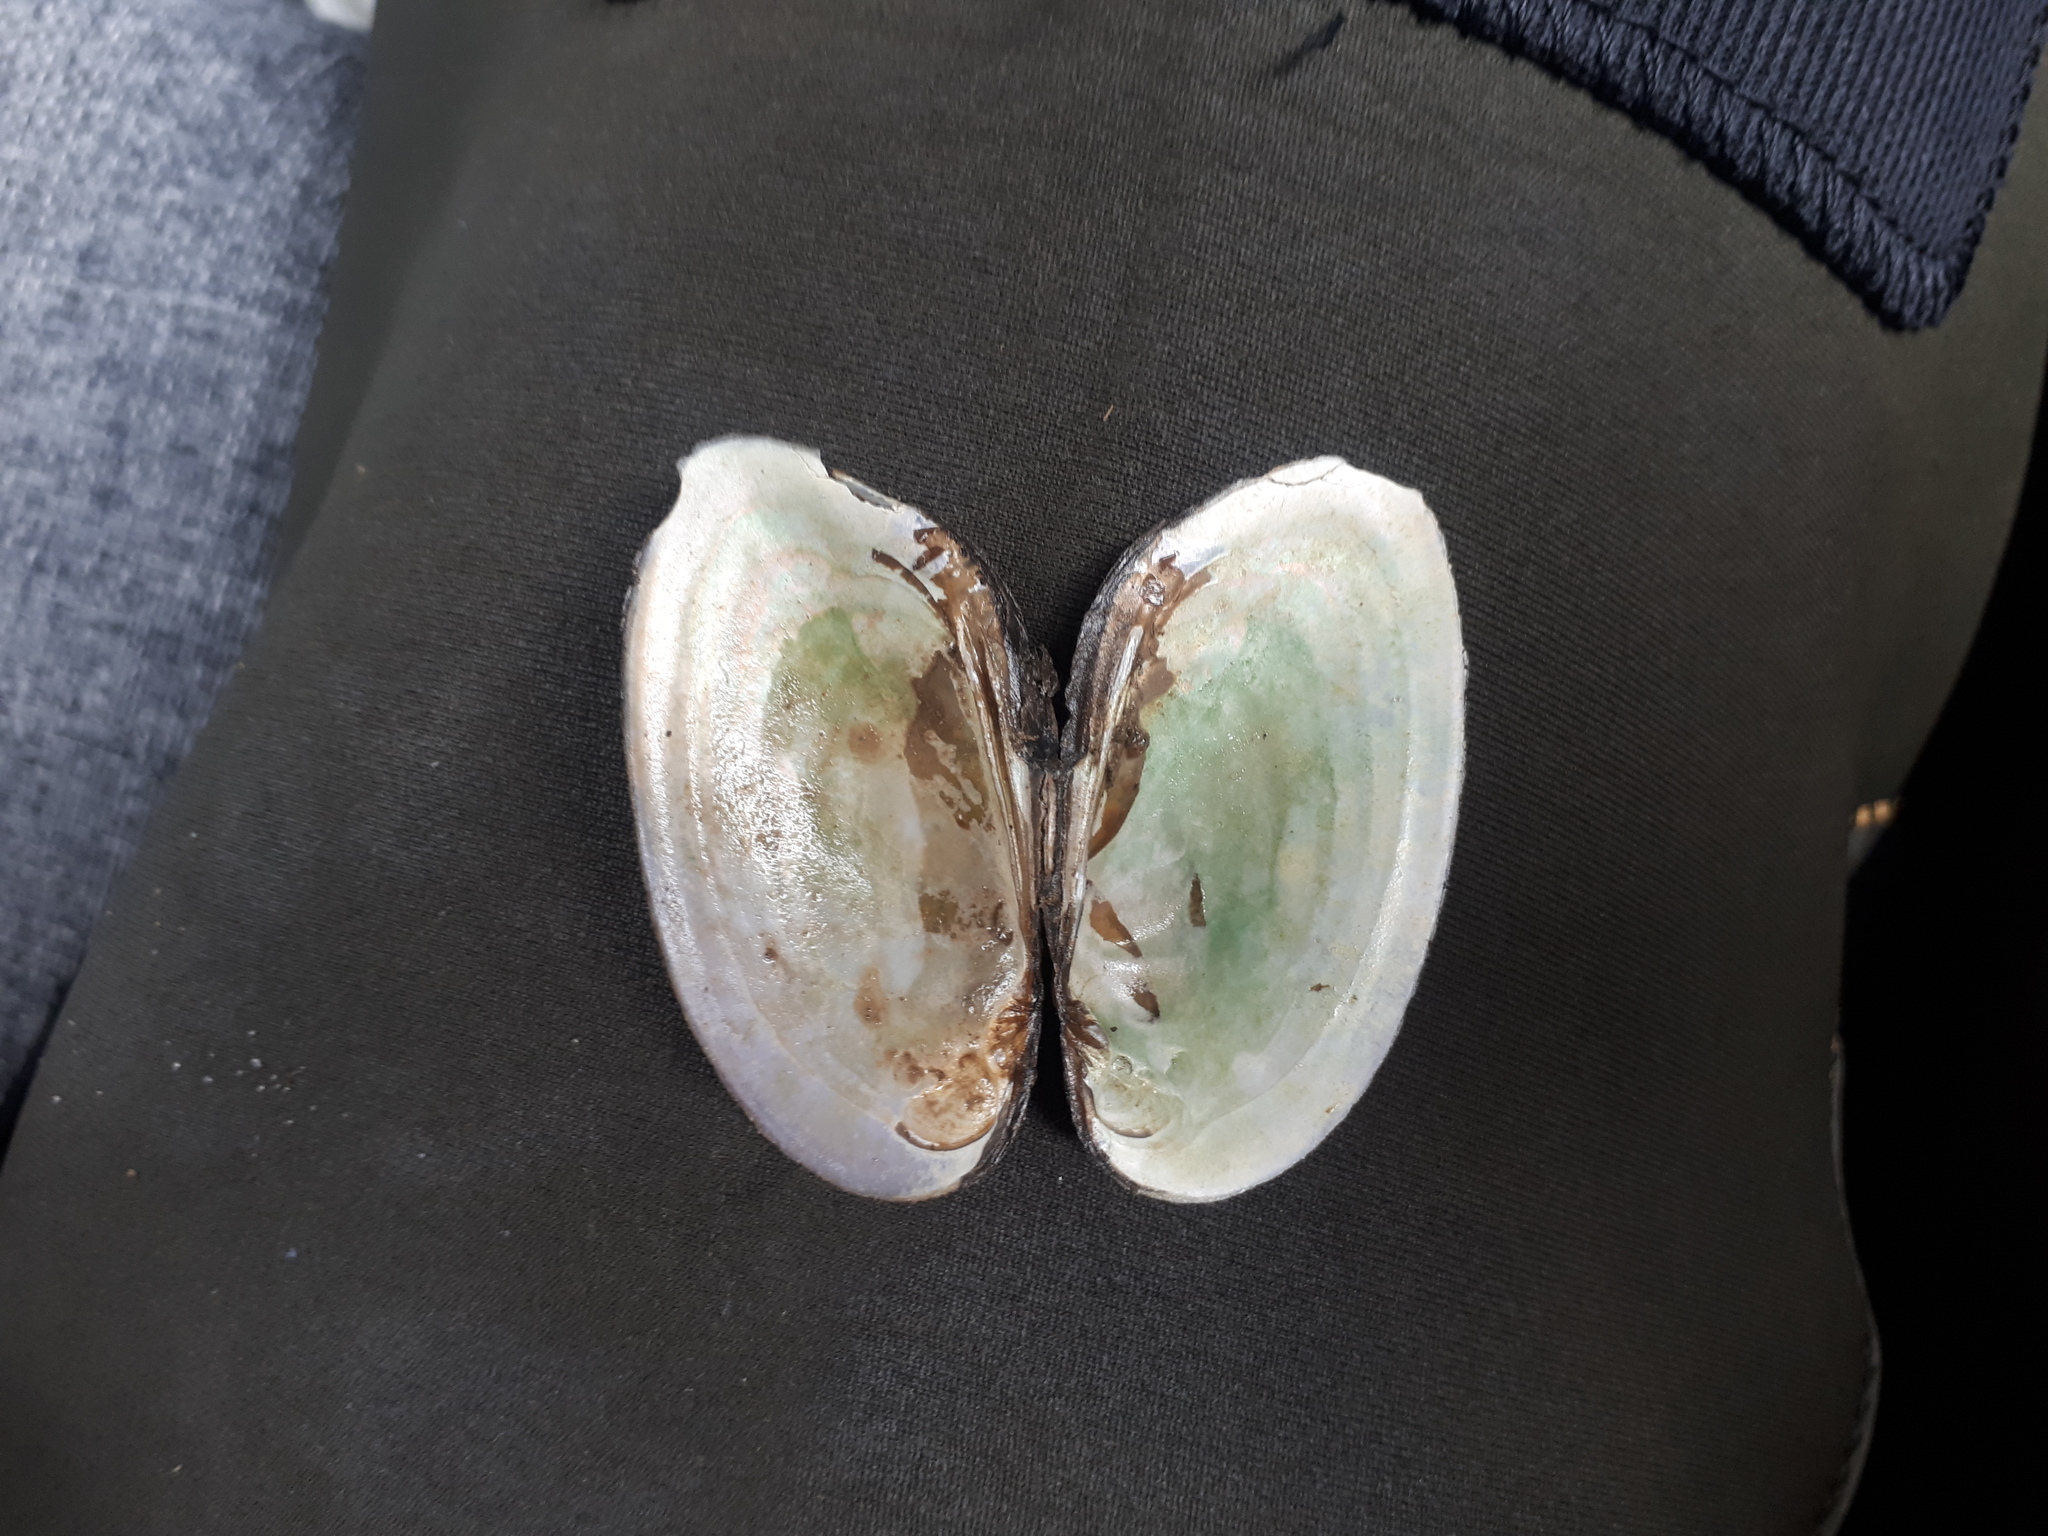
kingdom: Animalia
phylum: Mollusca
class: Bivalvia
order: Unionida
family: Unionidae
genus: Elliptio
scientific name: Elliptio complanata
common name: Eastern elliptio
